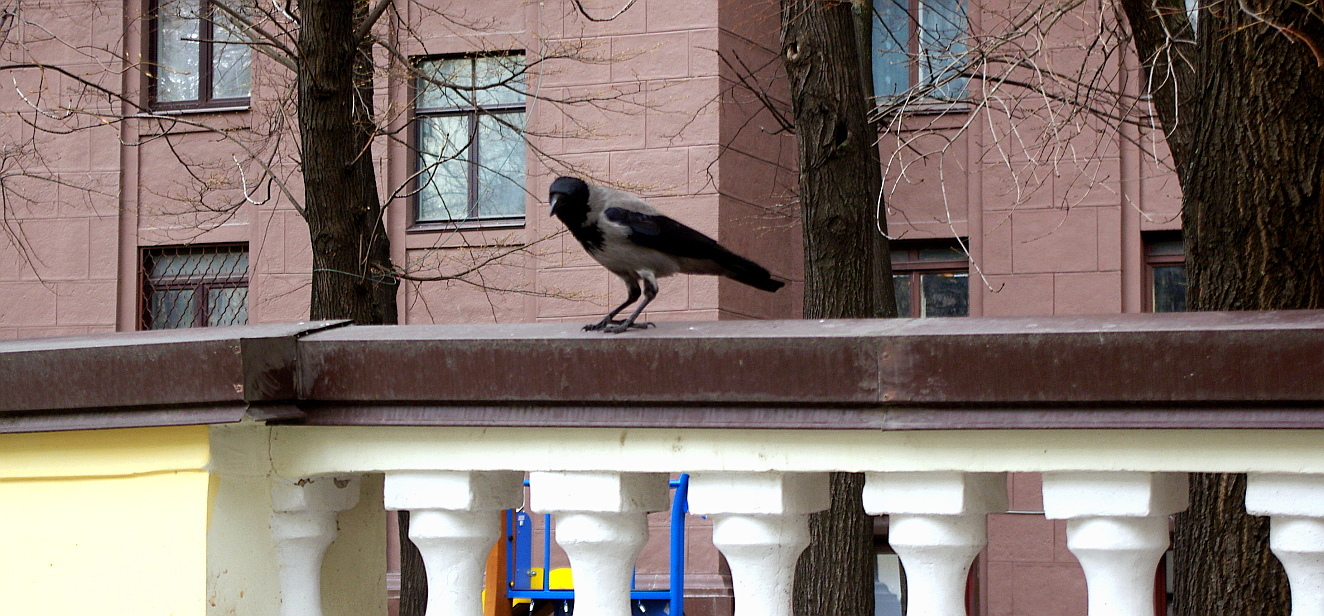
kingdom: Animalia
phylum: Chordata
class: Aves
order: Passeriformes
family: Corvidae
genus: Corvus
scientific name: Corvus cornix
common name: Hooded crow
